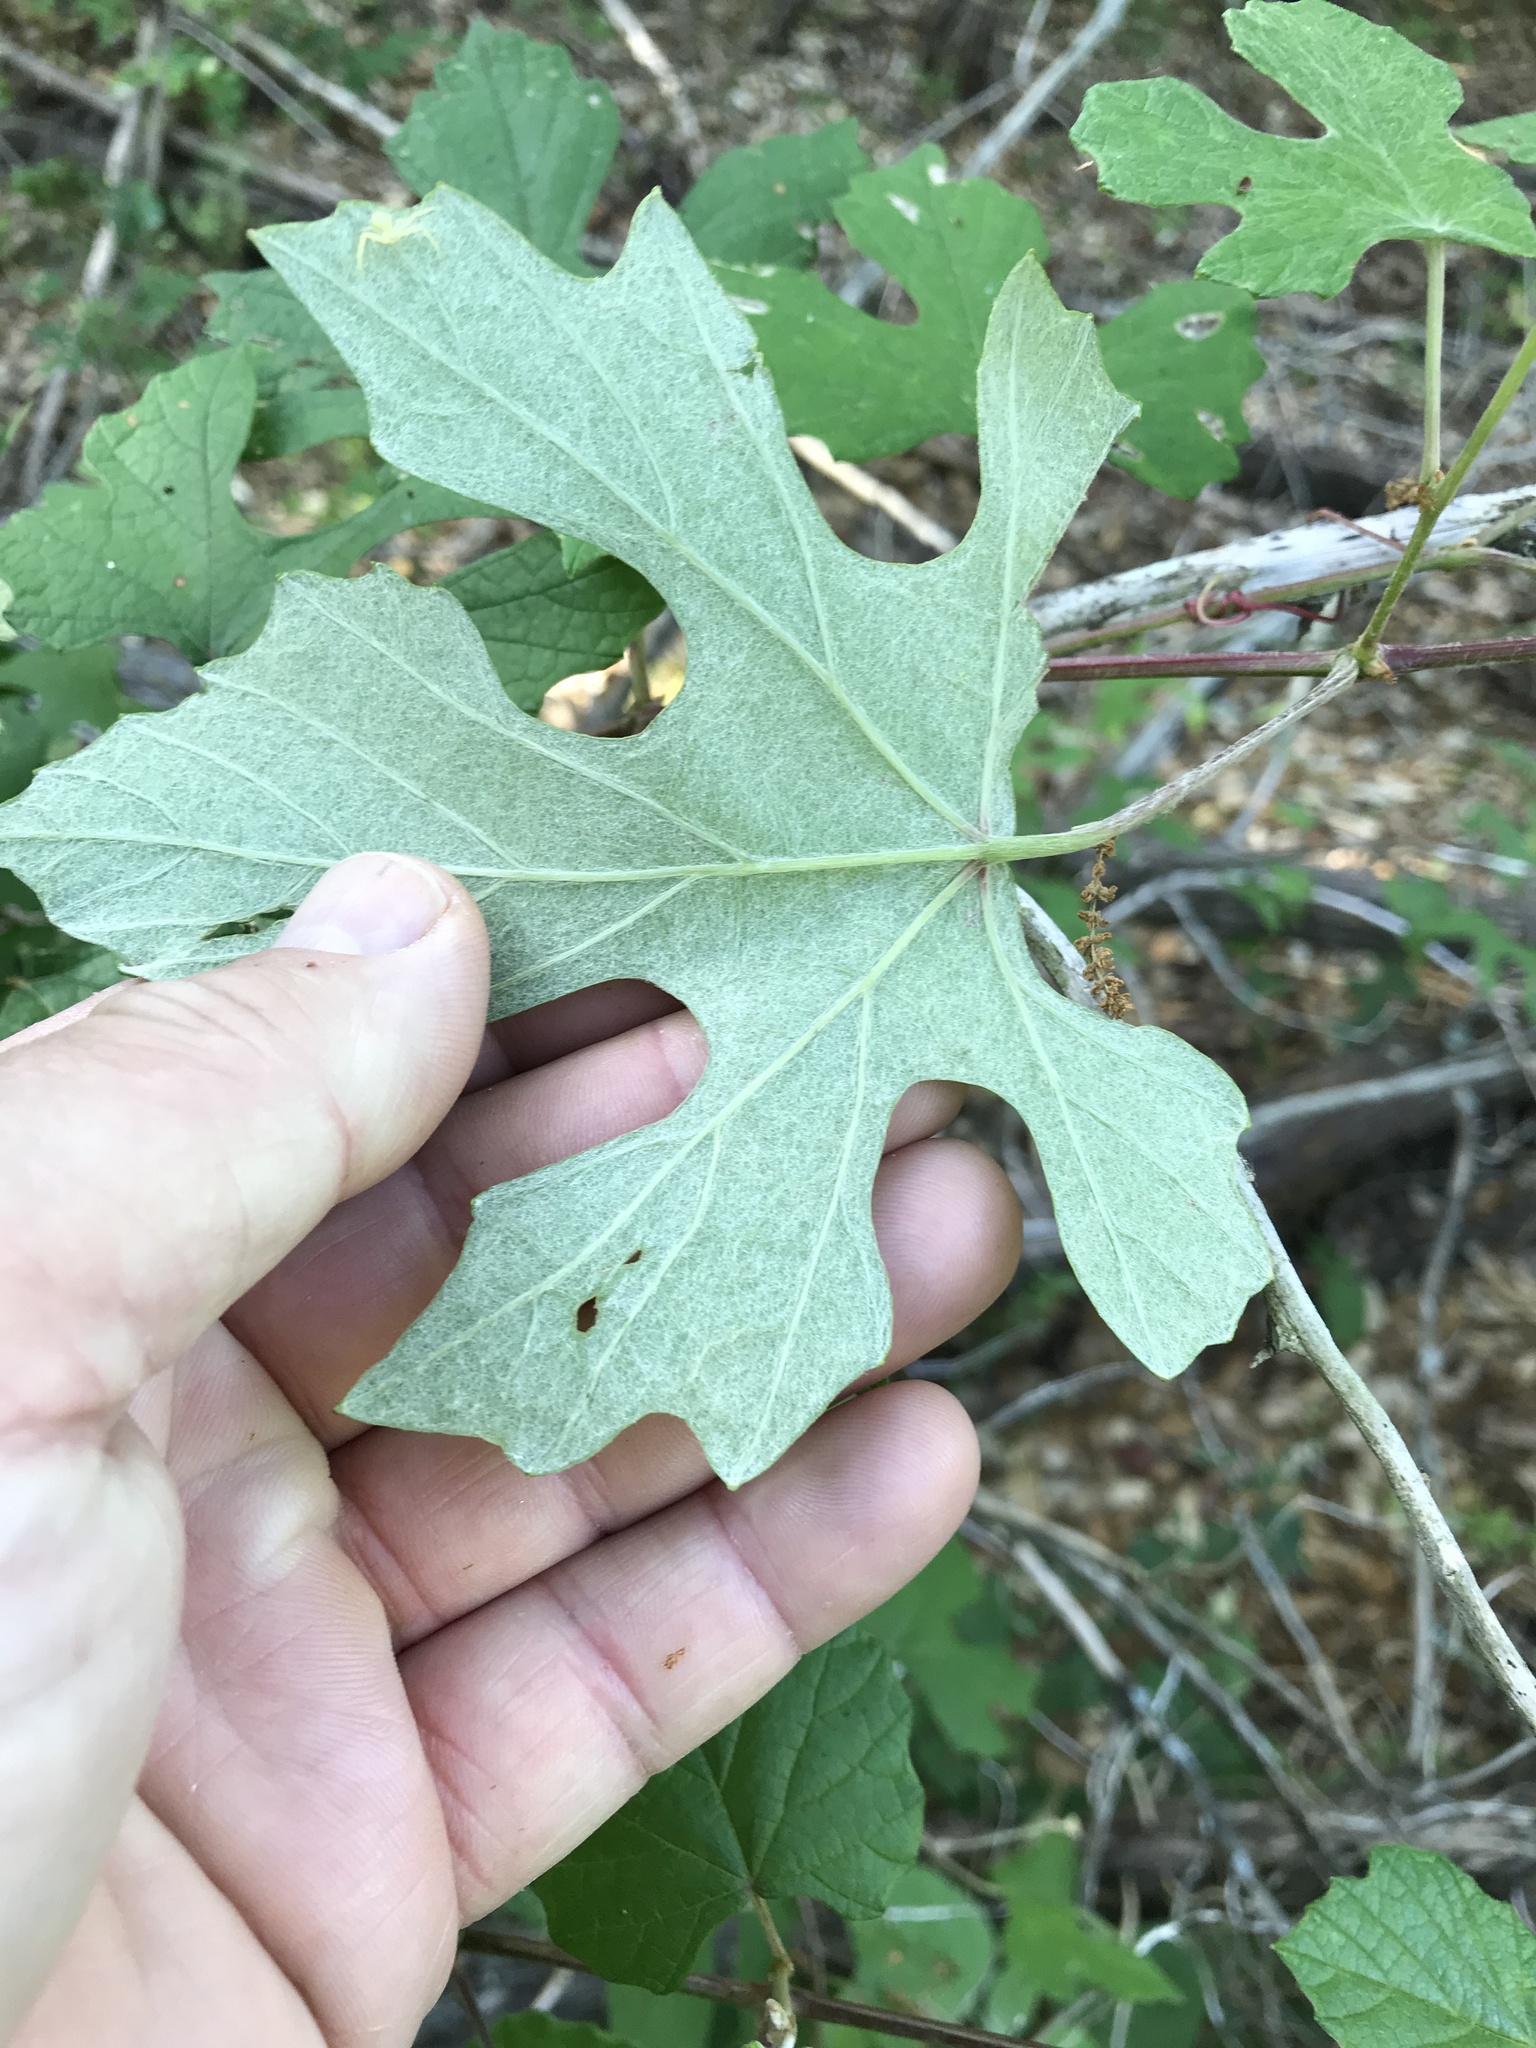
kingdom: Plantae
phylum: Tracheophyta
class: Magnoliopsida
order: Vitales
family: Vitaceae
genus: Vitis
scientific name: Vitis mustangensis
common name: Mustang grape
